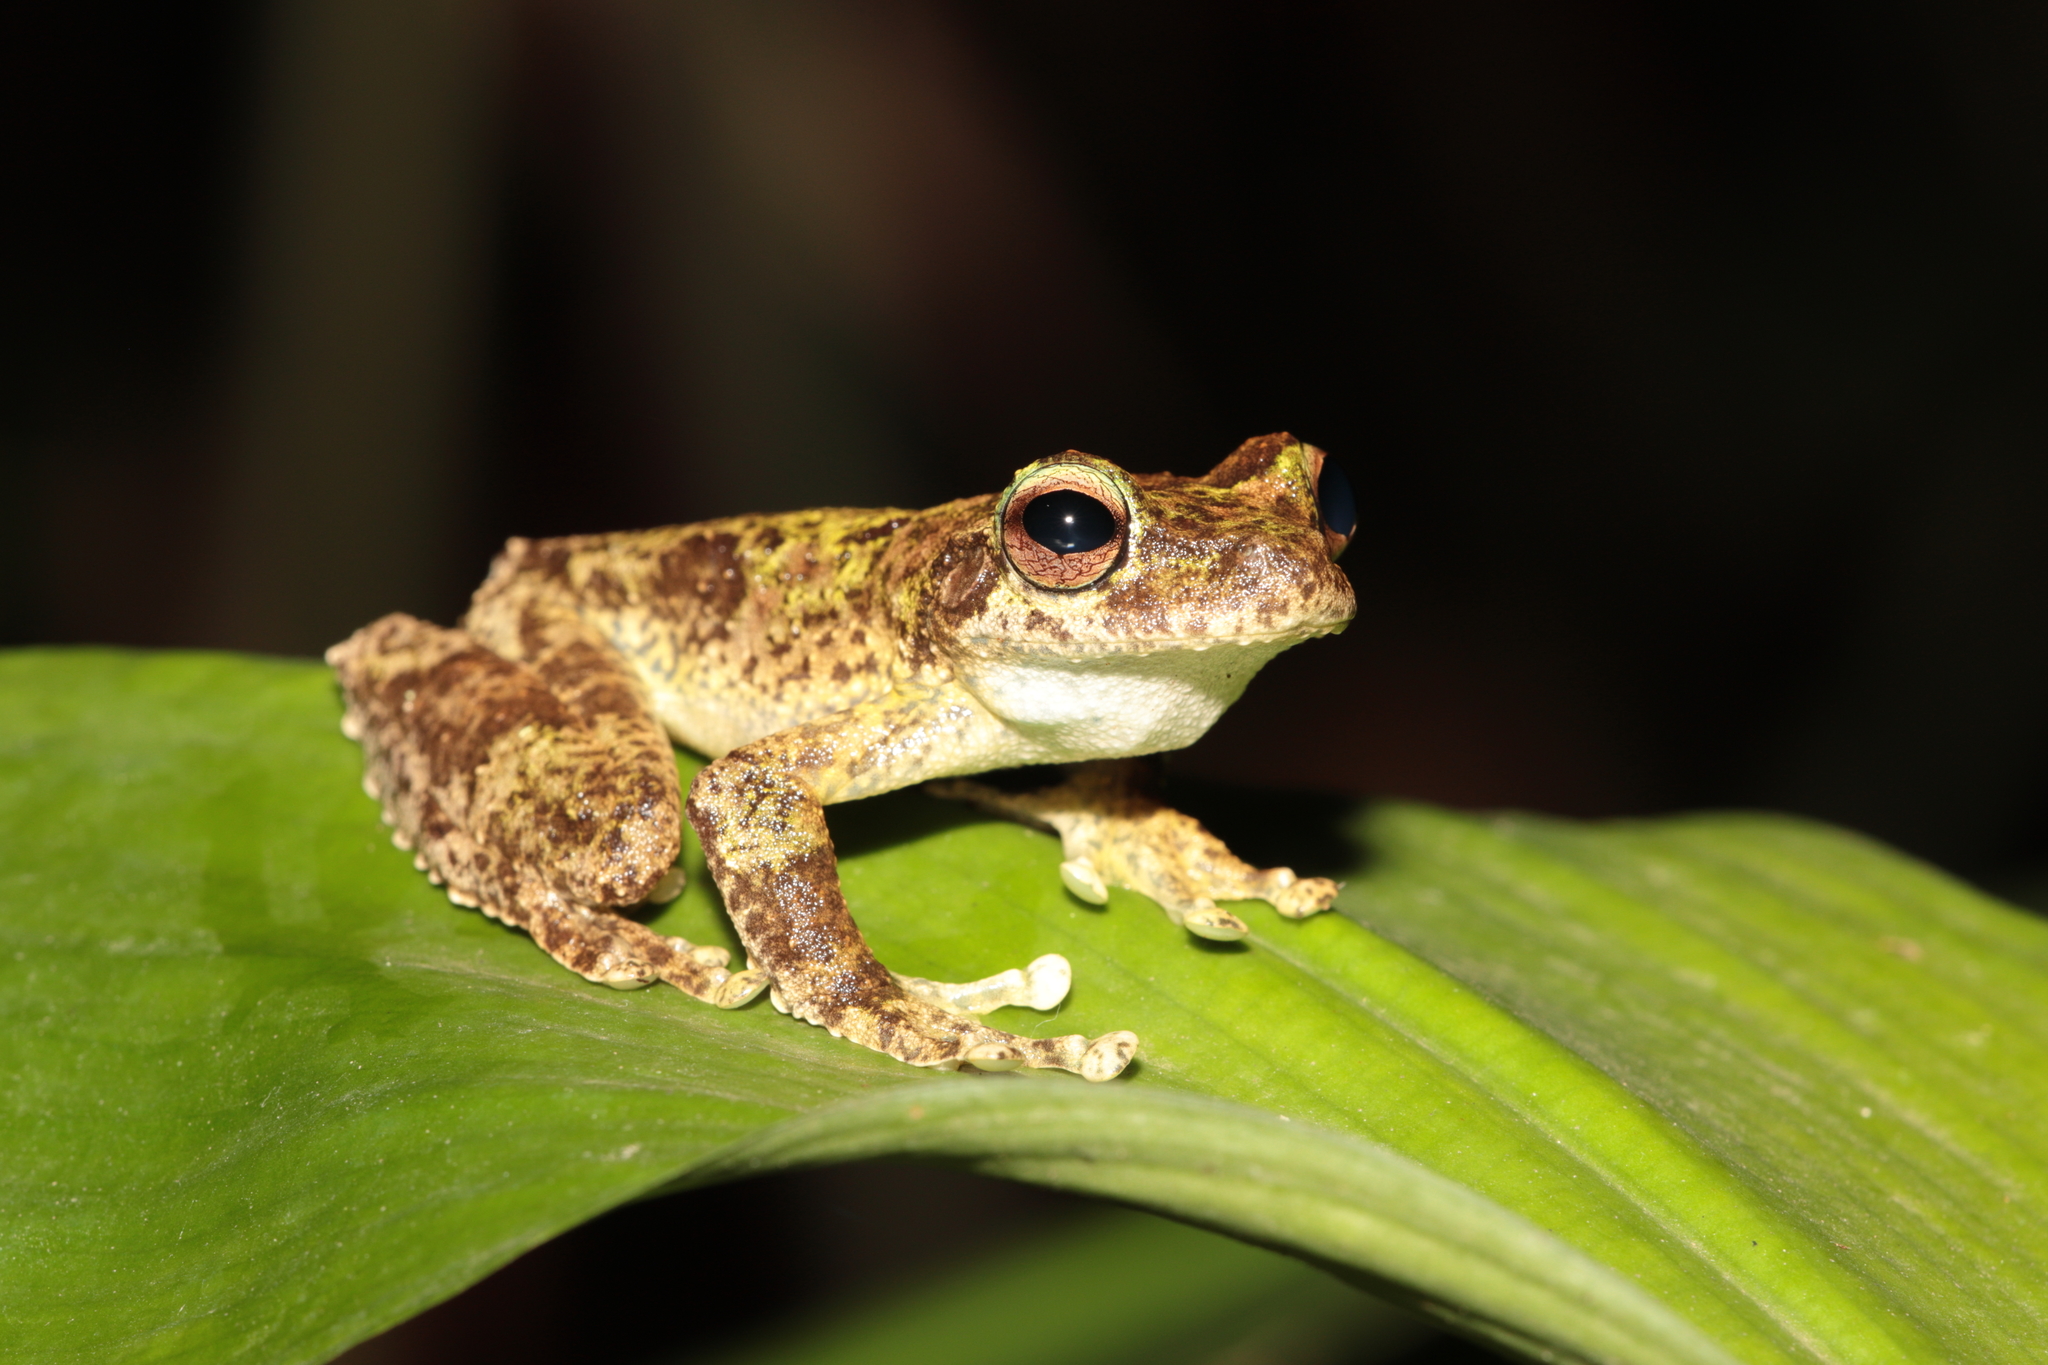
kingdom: Animalia
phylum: Chordata
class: Amphibia
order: Anura
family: Pelodryadidae
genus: Ranoidea
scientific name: Ranoidea serrata
